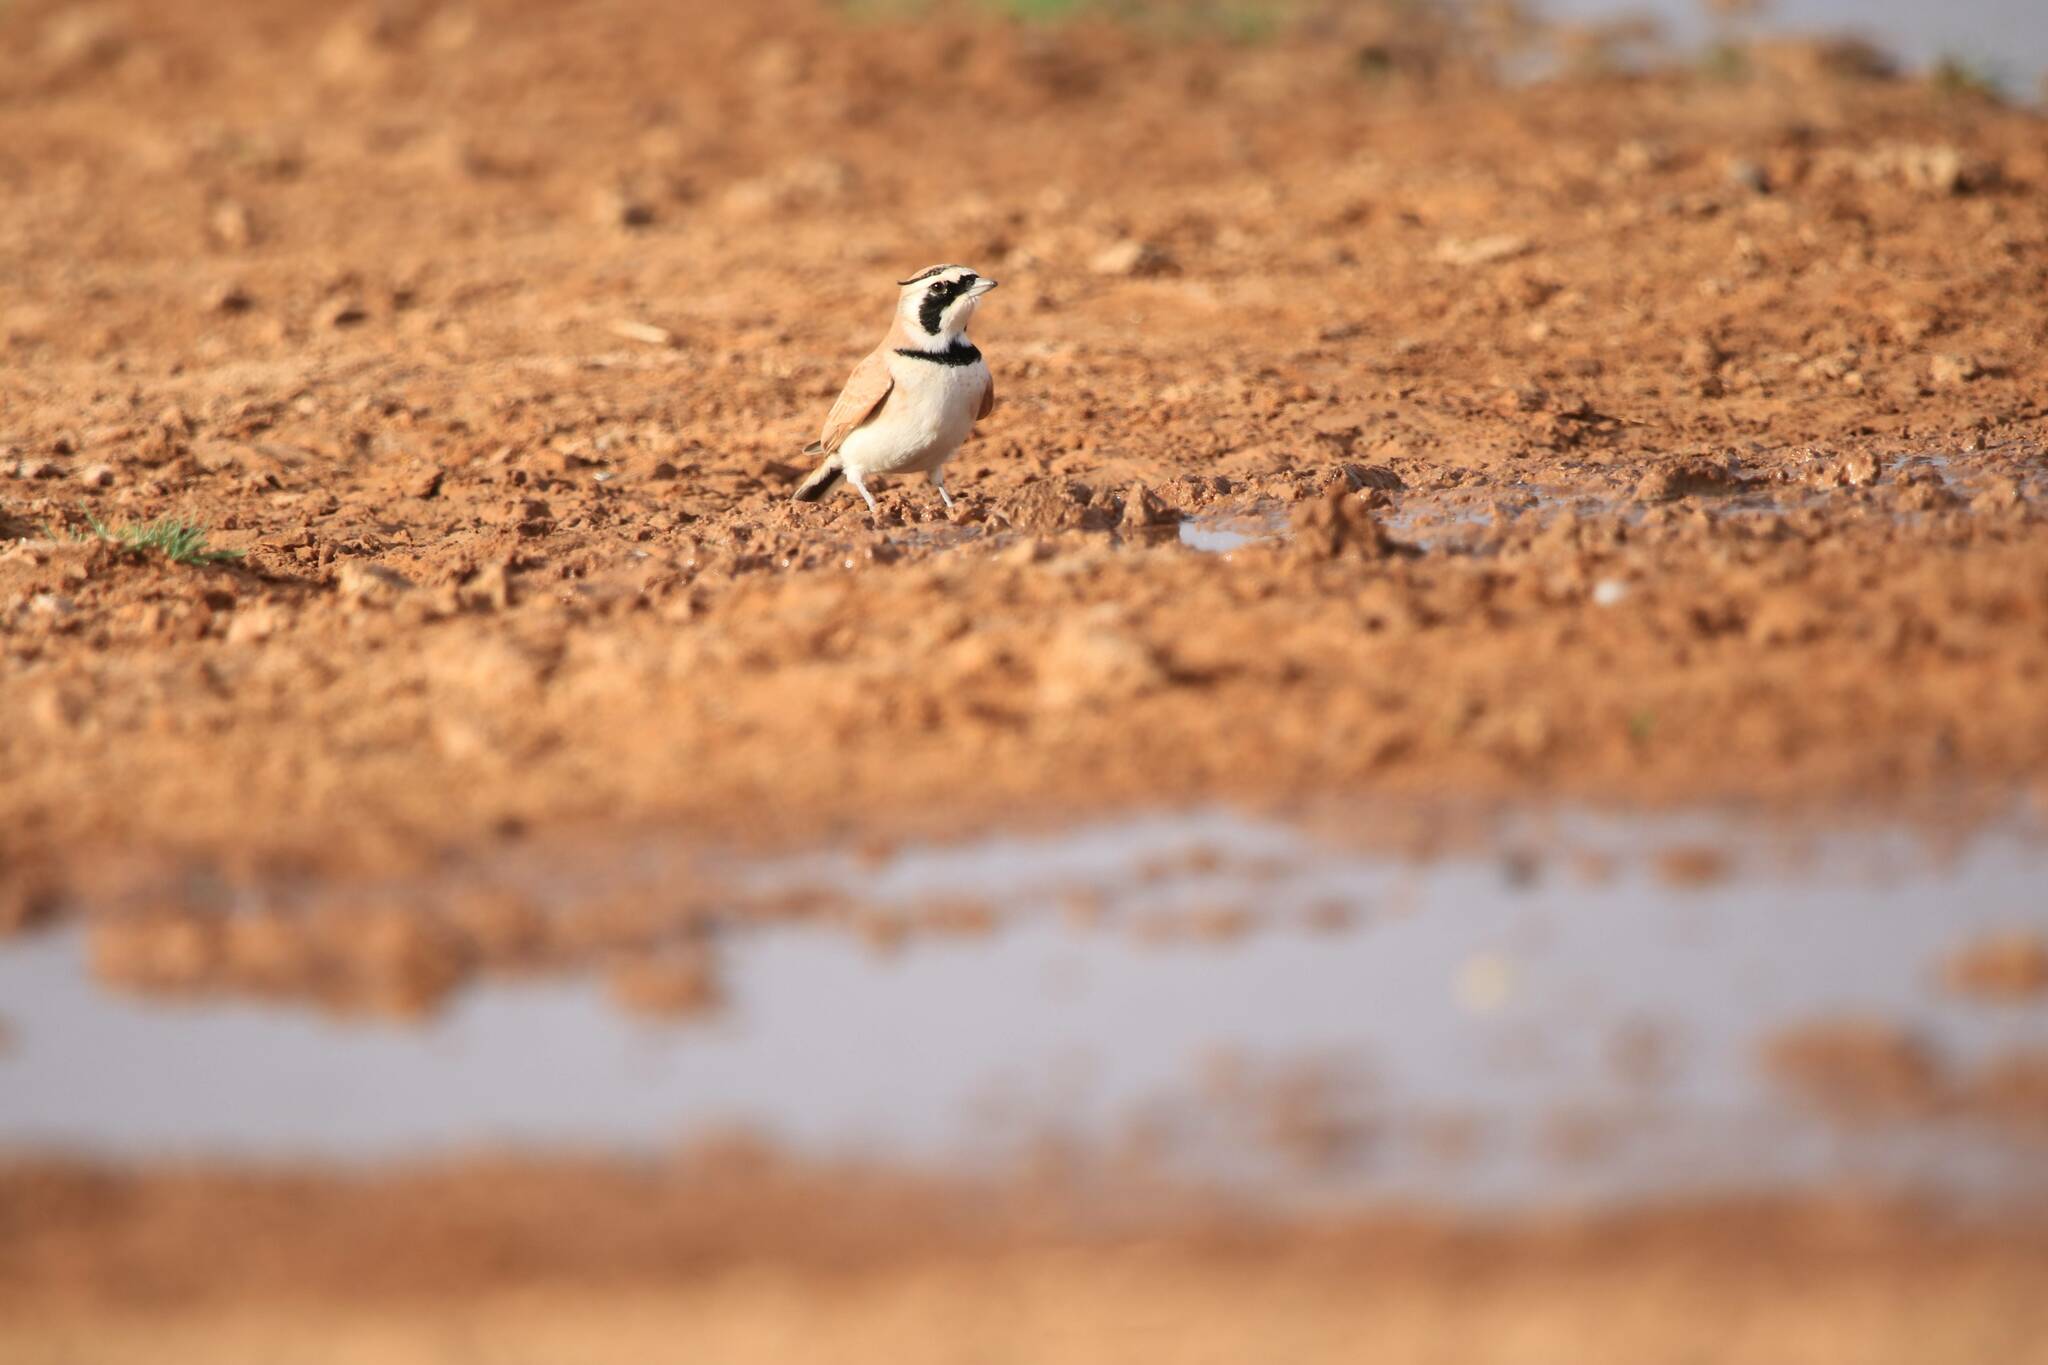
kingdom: Animalia
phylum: Chordata
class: Aves
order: Passeriformes
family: Alaudidae
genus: Eremophila
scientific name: Eremophila bilopha
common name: Temminck's lark
